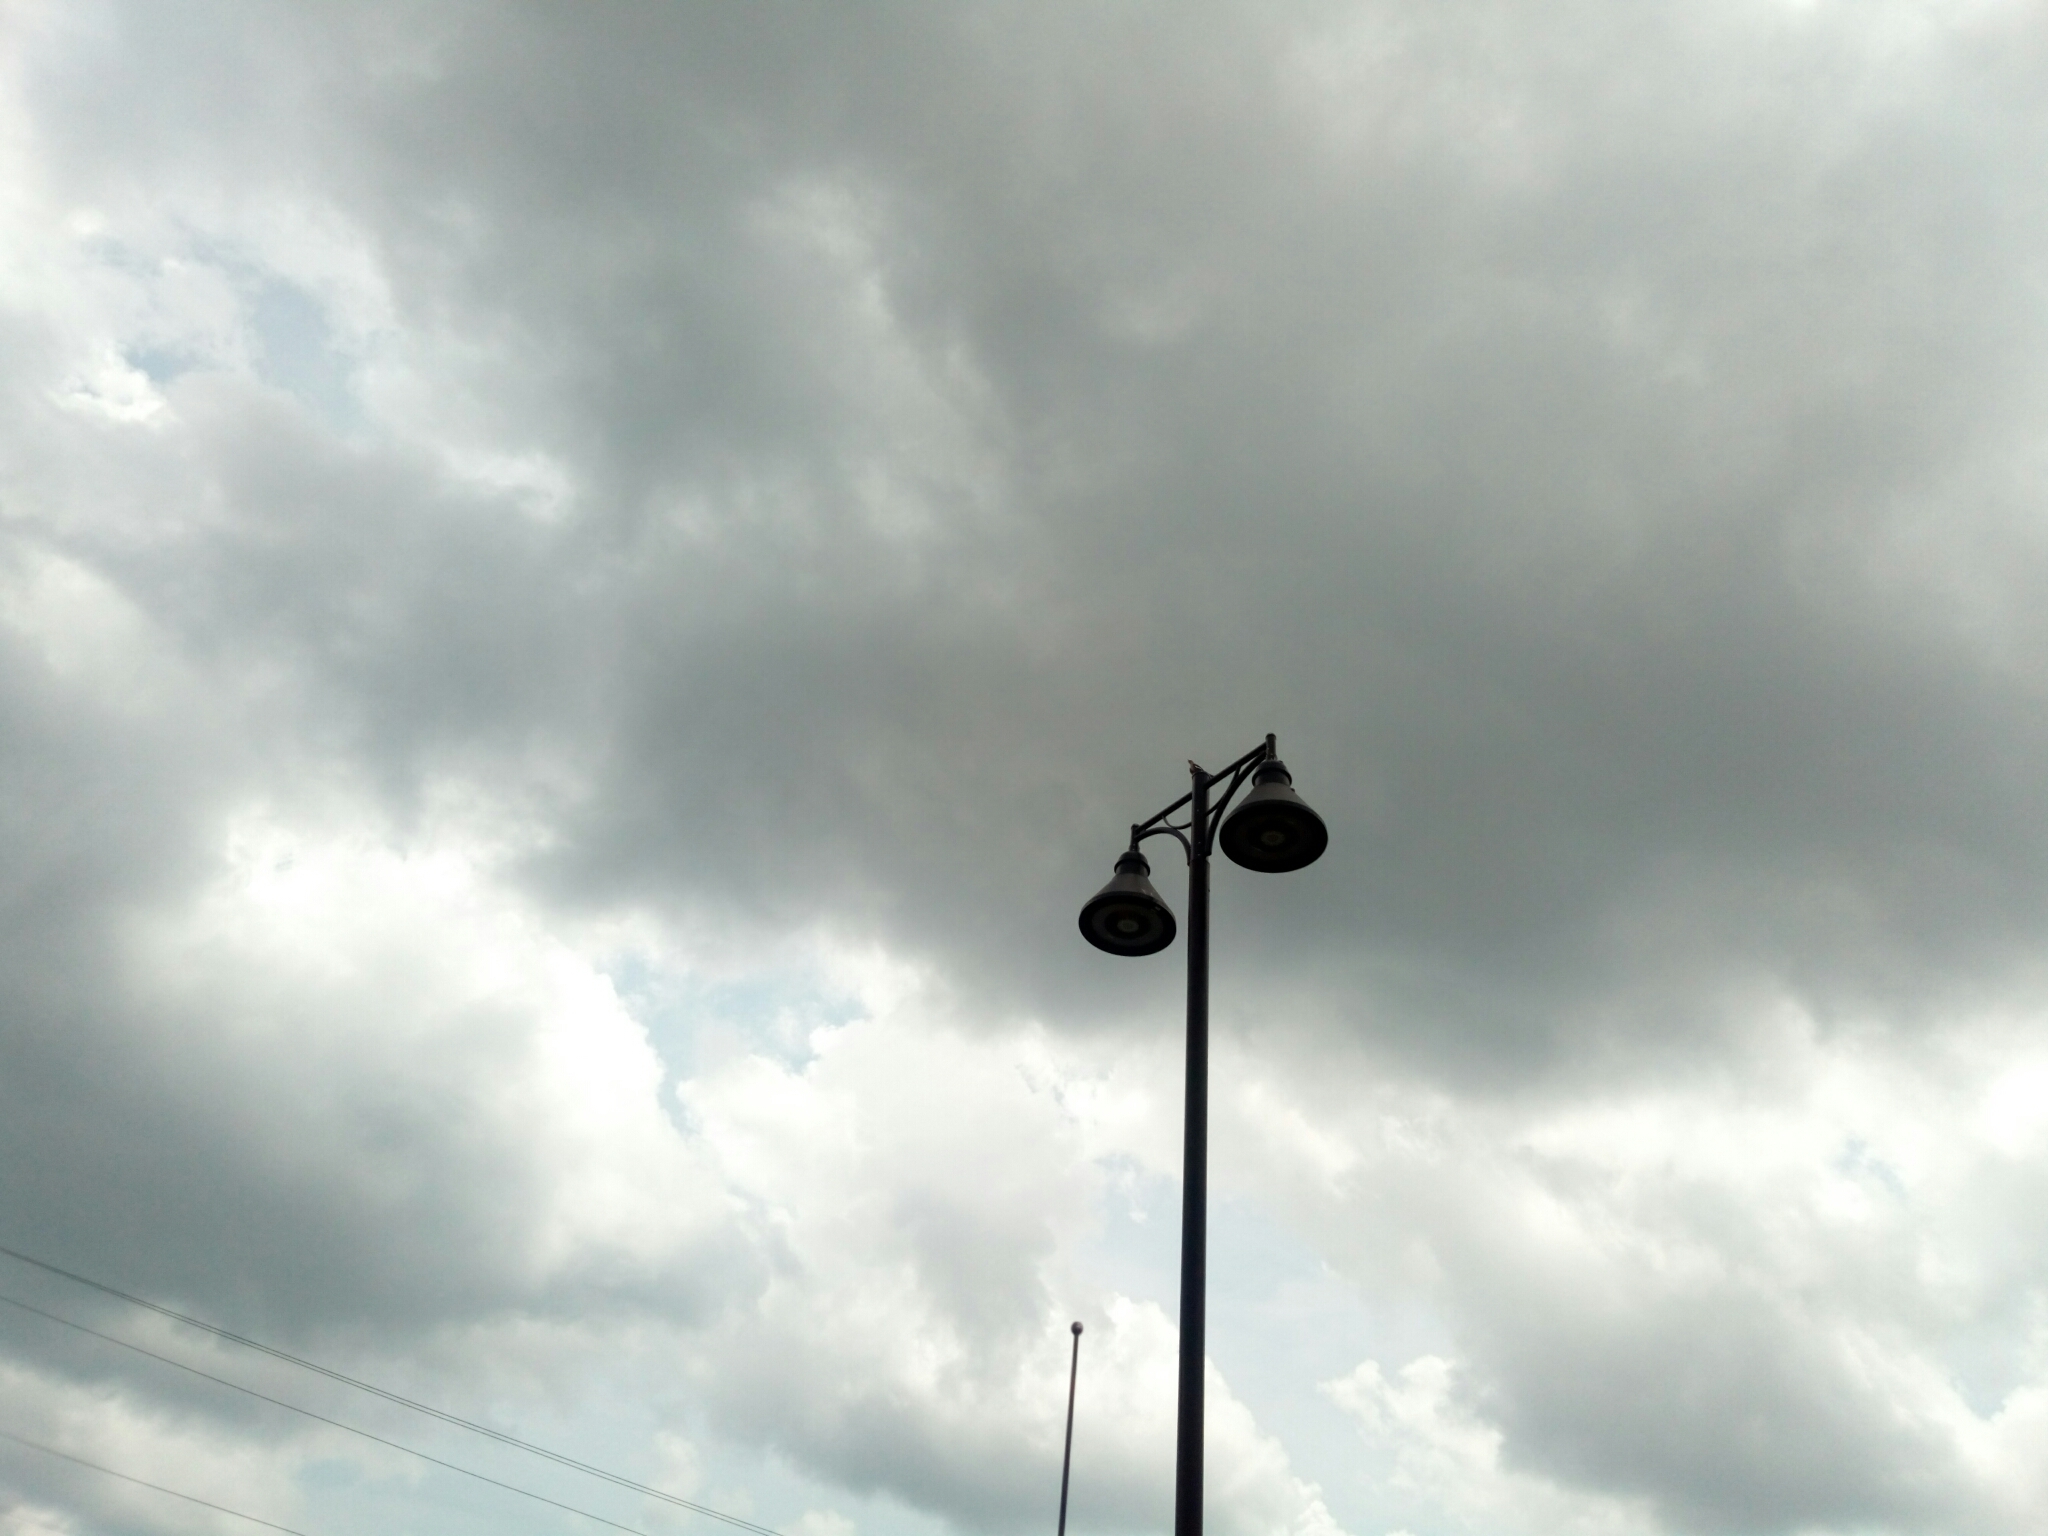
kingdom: Animalia
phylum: Chordata
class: Aves
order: Passeriformes
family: Mimidae
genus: Mimus
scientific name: Mimus polyglottos
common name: Northern mockingbird
